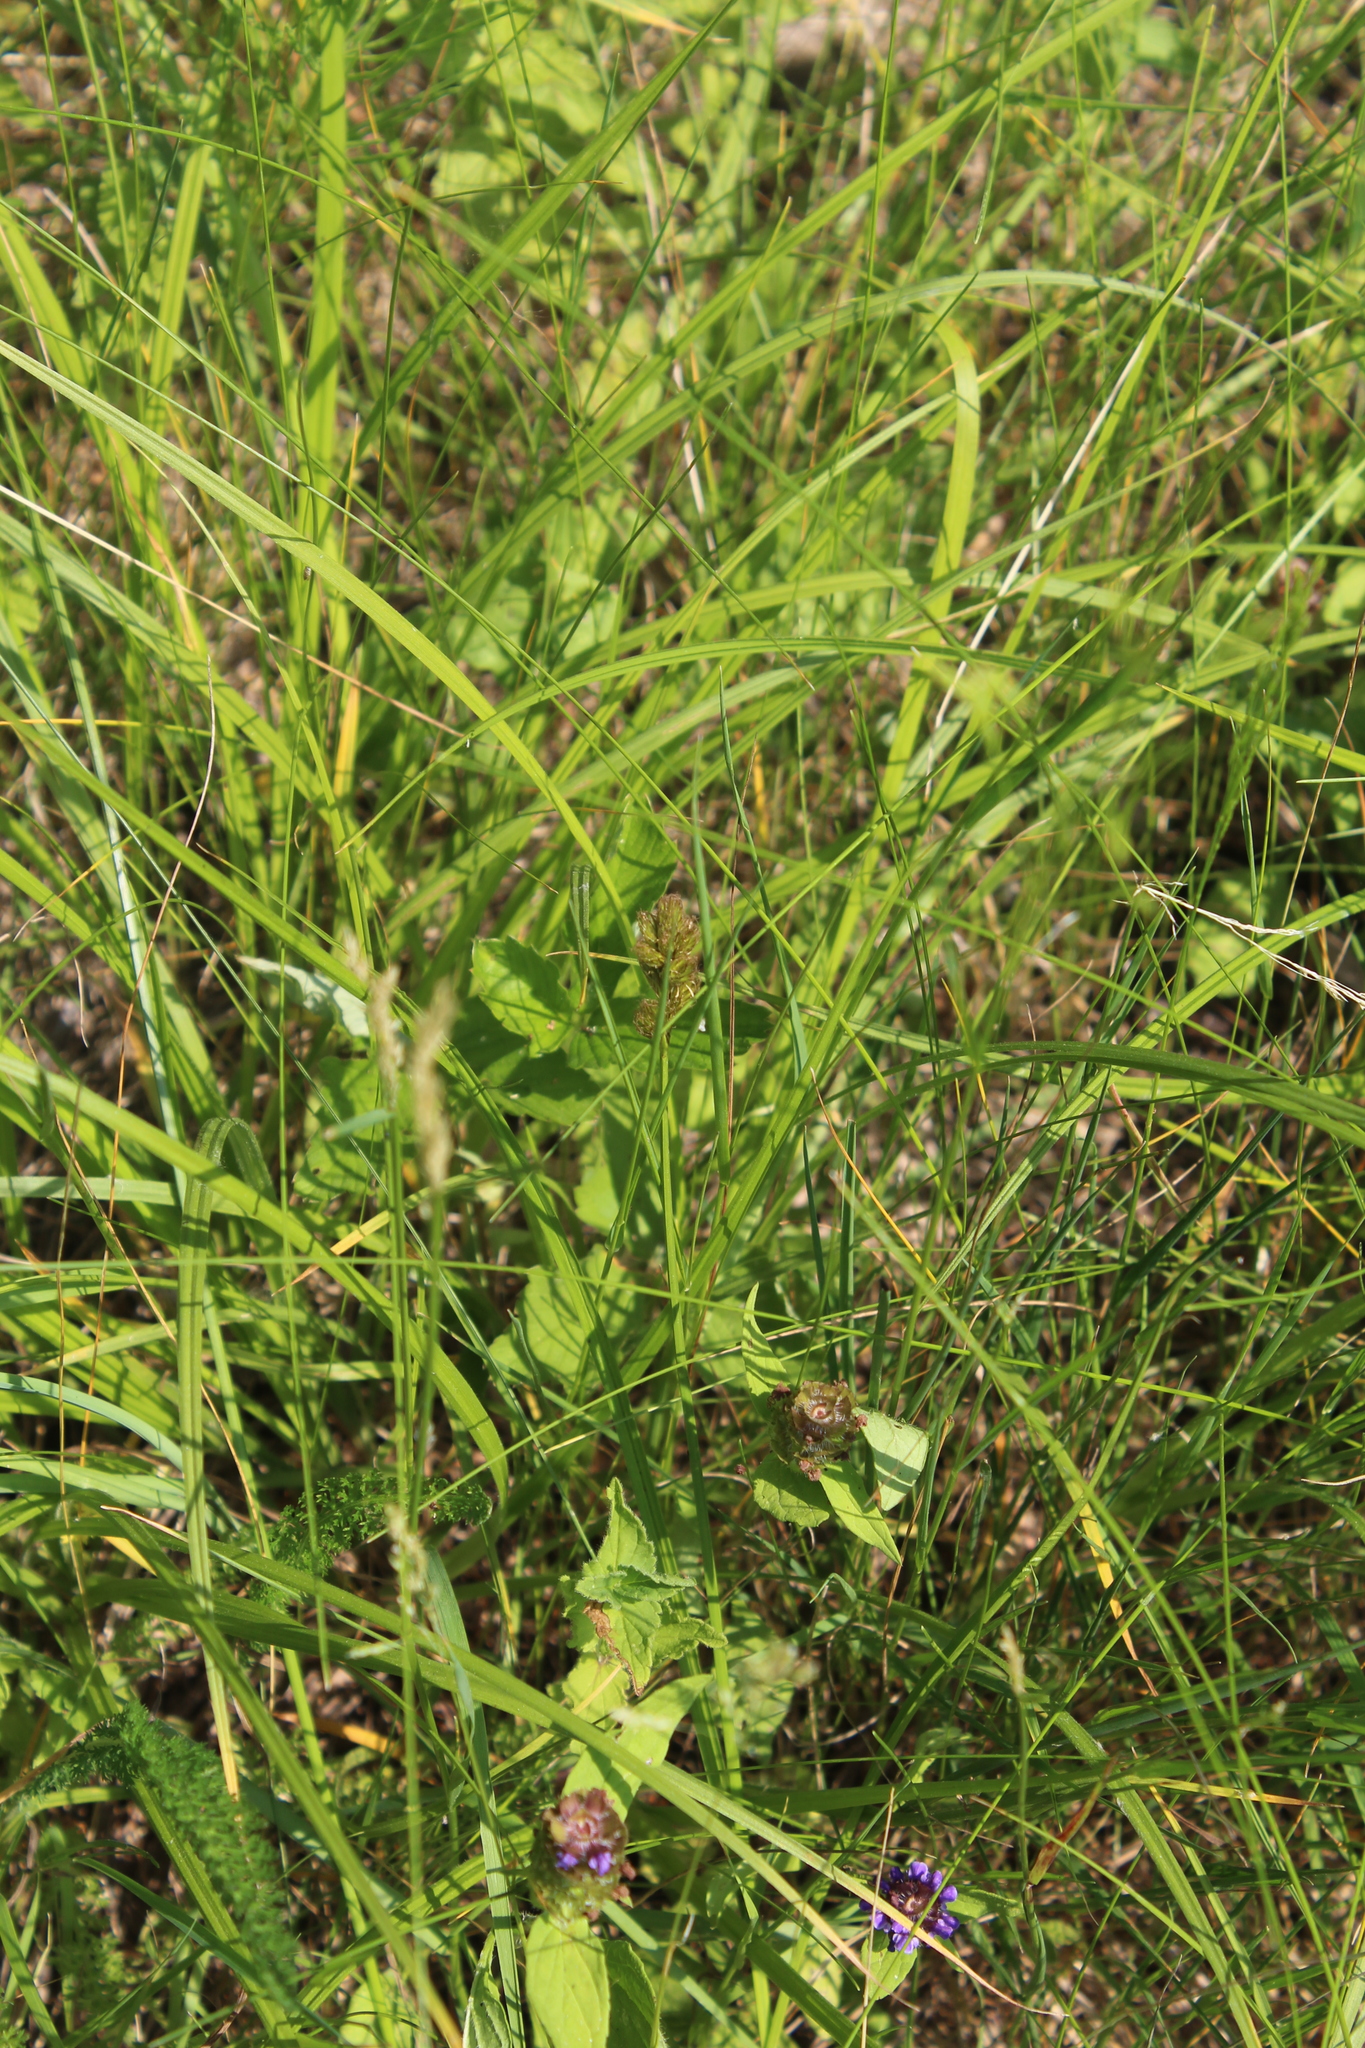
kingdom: Plantae
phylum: Tracheophyta
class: Liliopsida
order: Poales
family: Cyperaceae
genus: Carex
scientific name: Carex leporina
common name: Oval sedge
